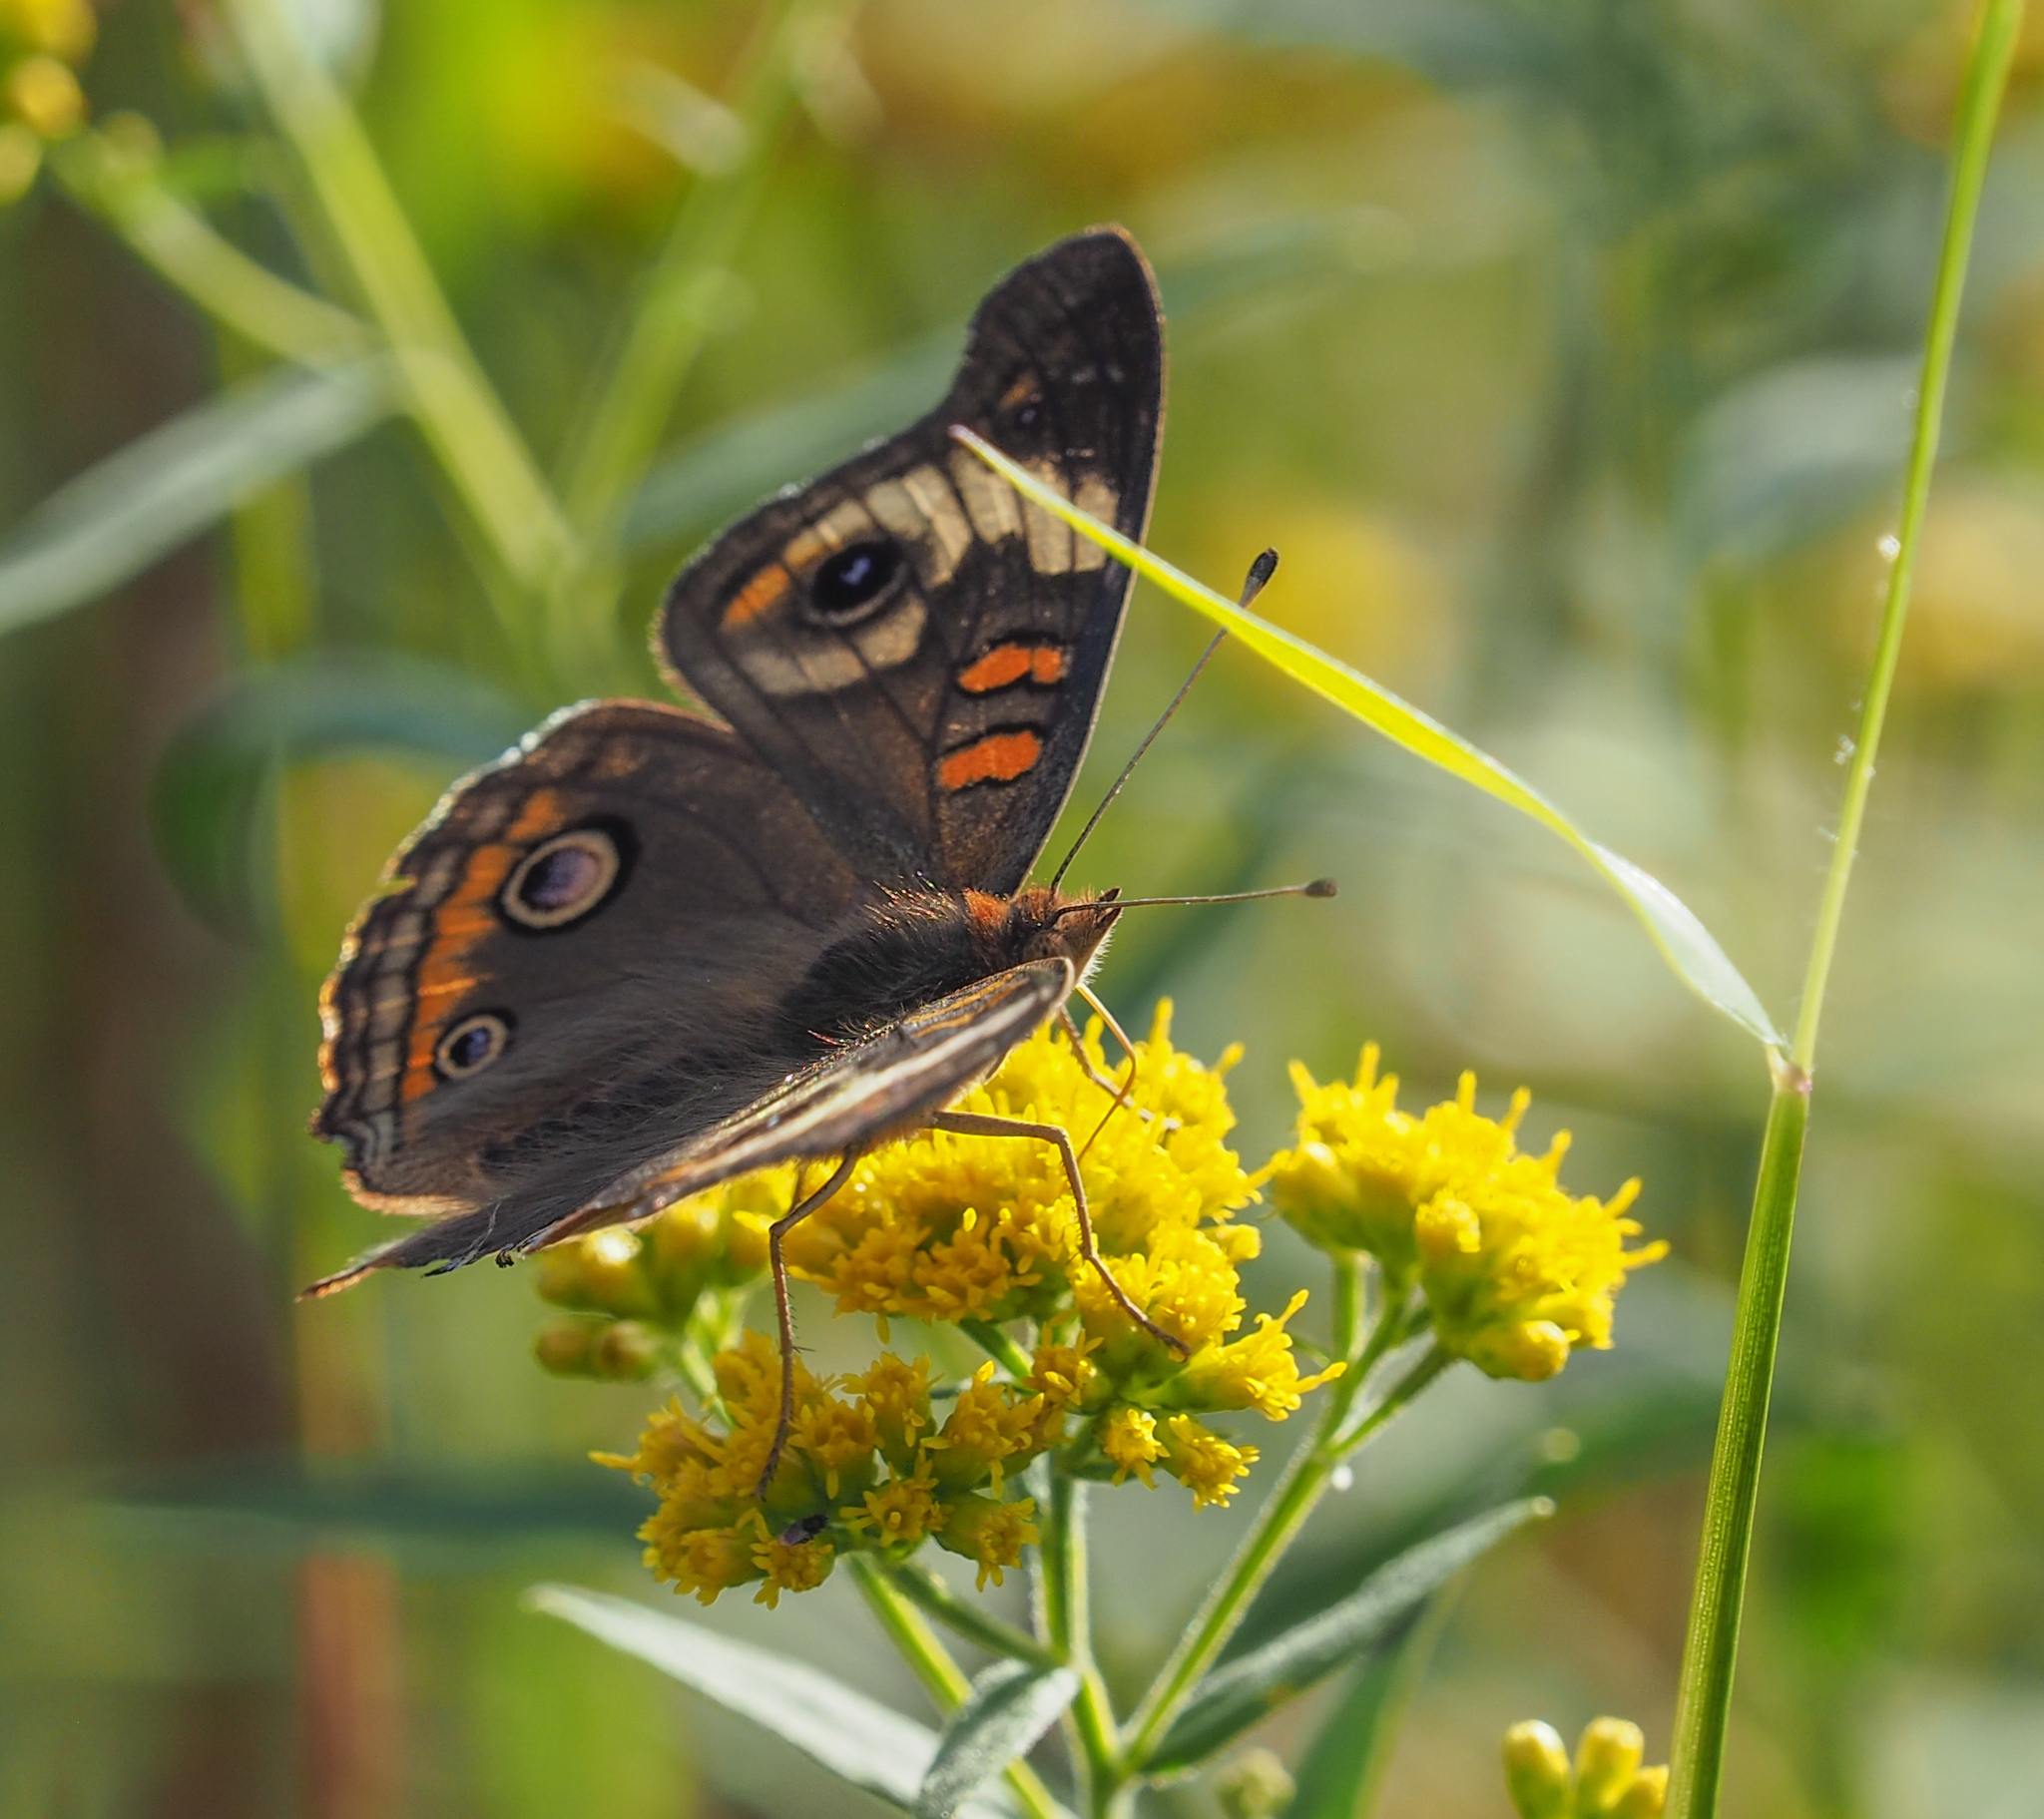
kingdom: Animalia
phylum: Arthropoda
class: Insecta
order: Lepidoptera
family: Nymphalidae
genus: Junonia
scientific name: Junonia coenia
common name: Common buckeye
